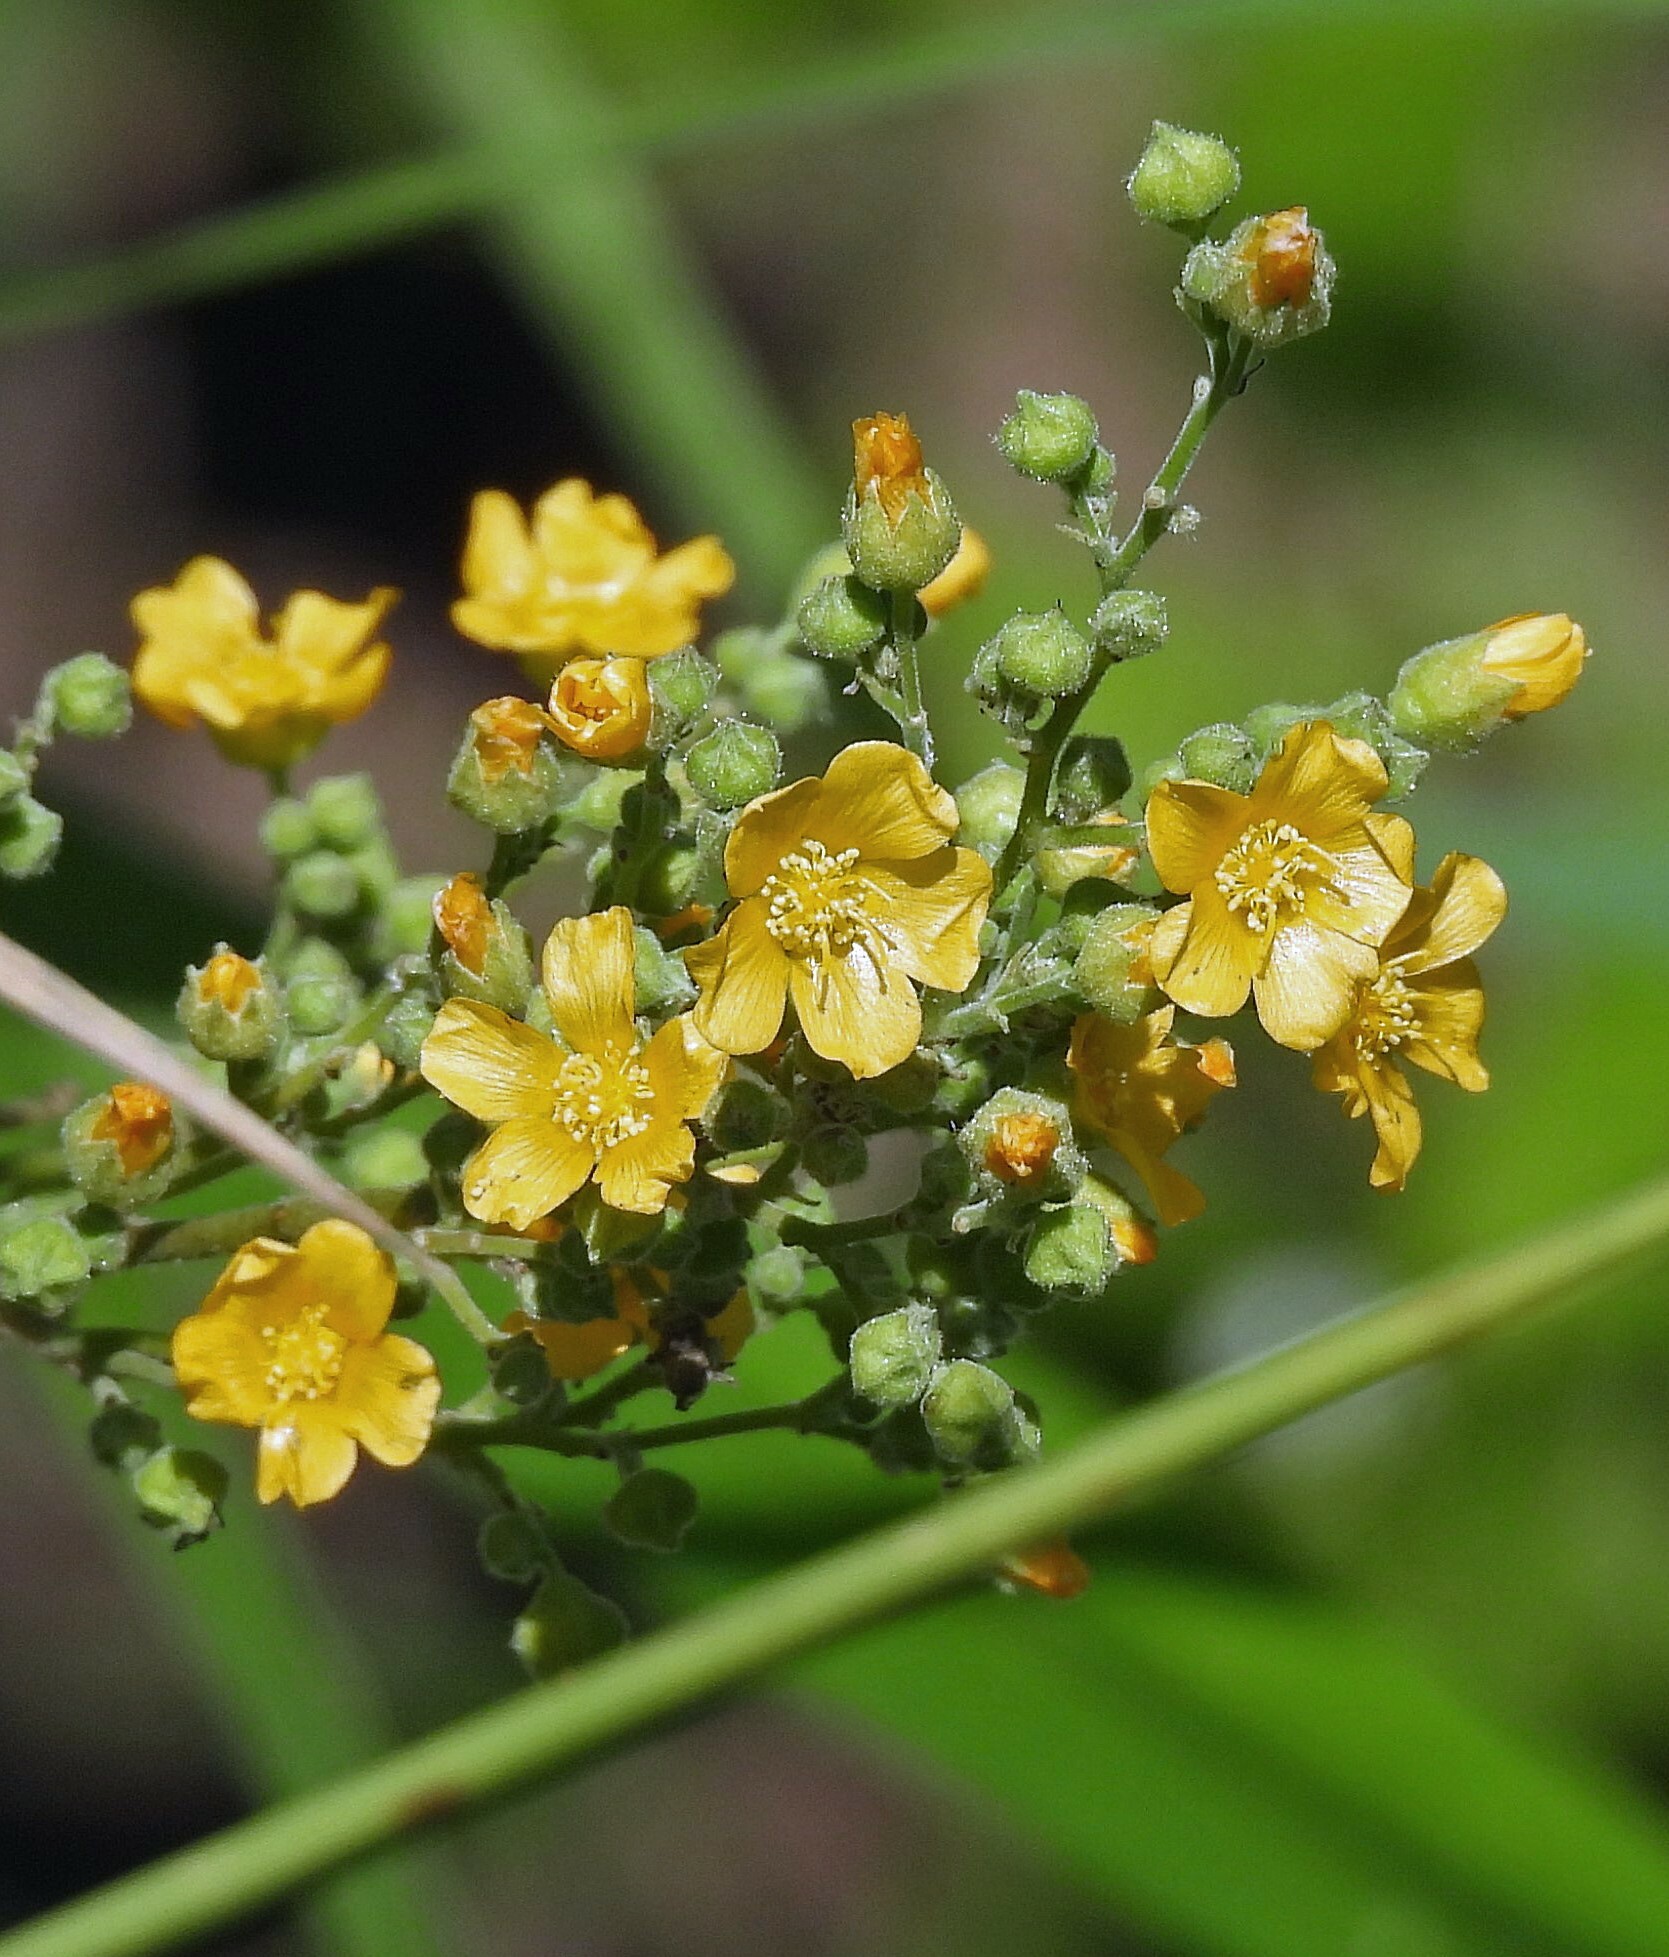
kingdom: Plantae
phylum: Tracheophyta
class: Magnoliopsida
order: Malvales
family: Malvaceae
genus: Wissadula
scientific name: Wissadula tucumanensis
